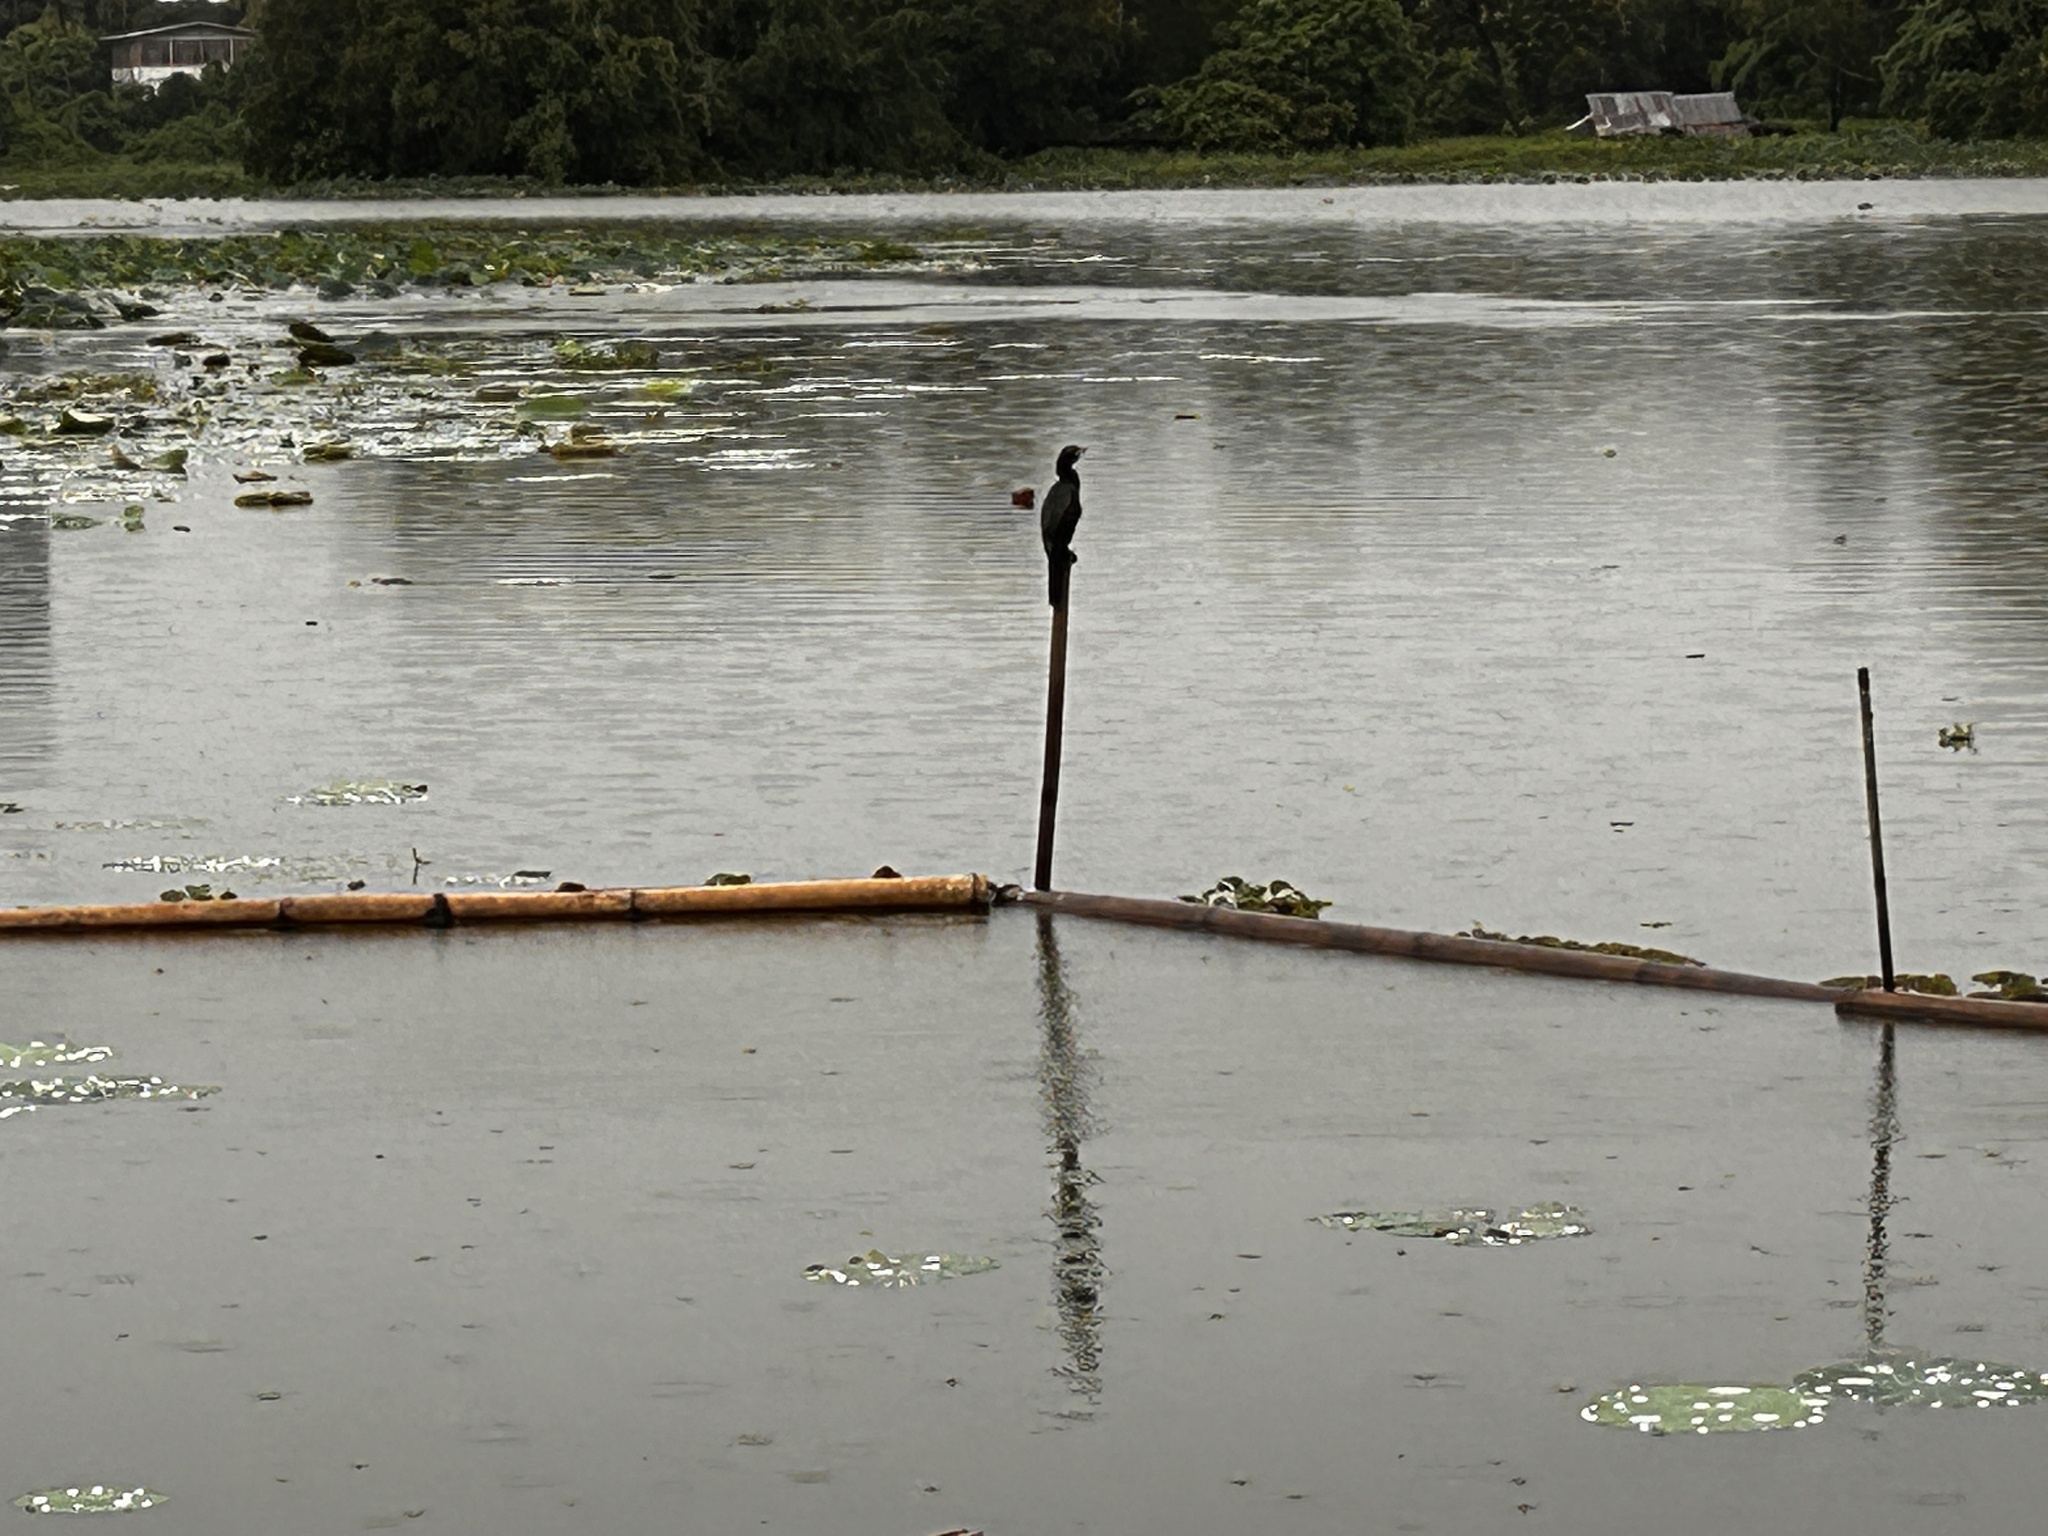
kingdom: Animalia
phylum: Chordata
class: Aves
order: Suliformes
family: Phalacrocoracidae
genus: Microcarbo
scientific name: Microcarbo niger
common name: Little cormorant
